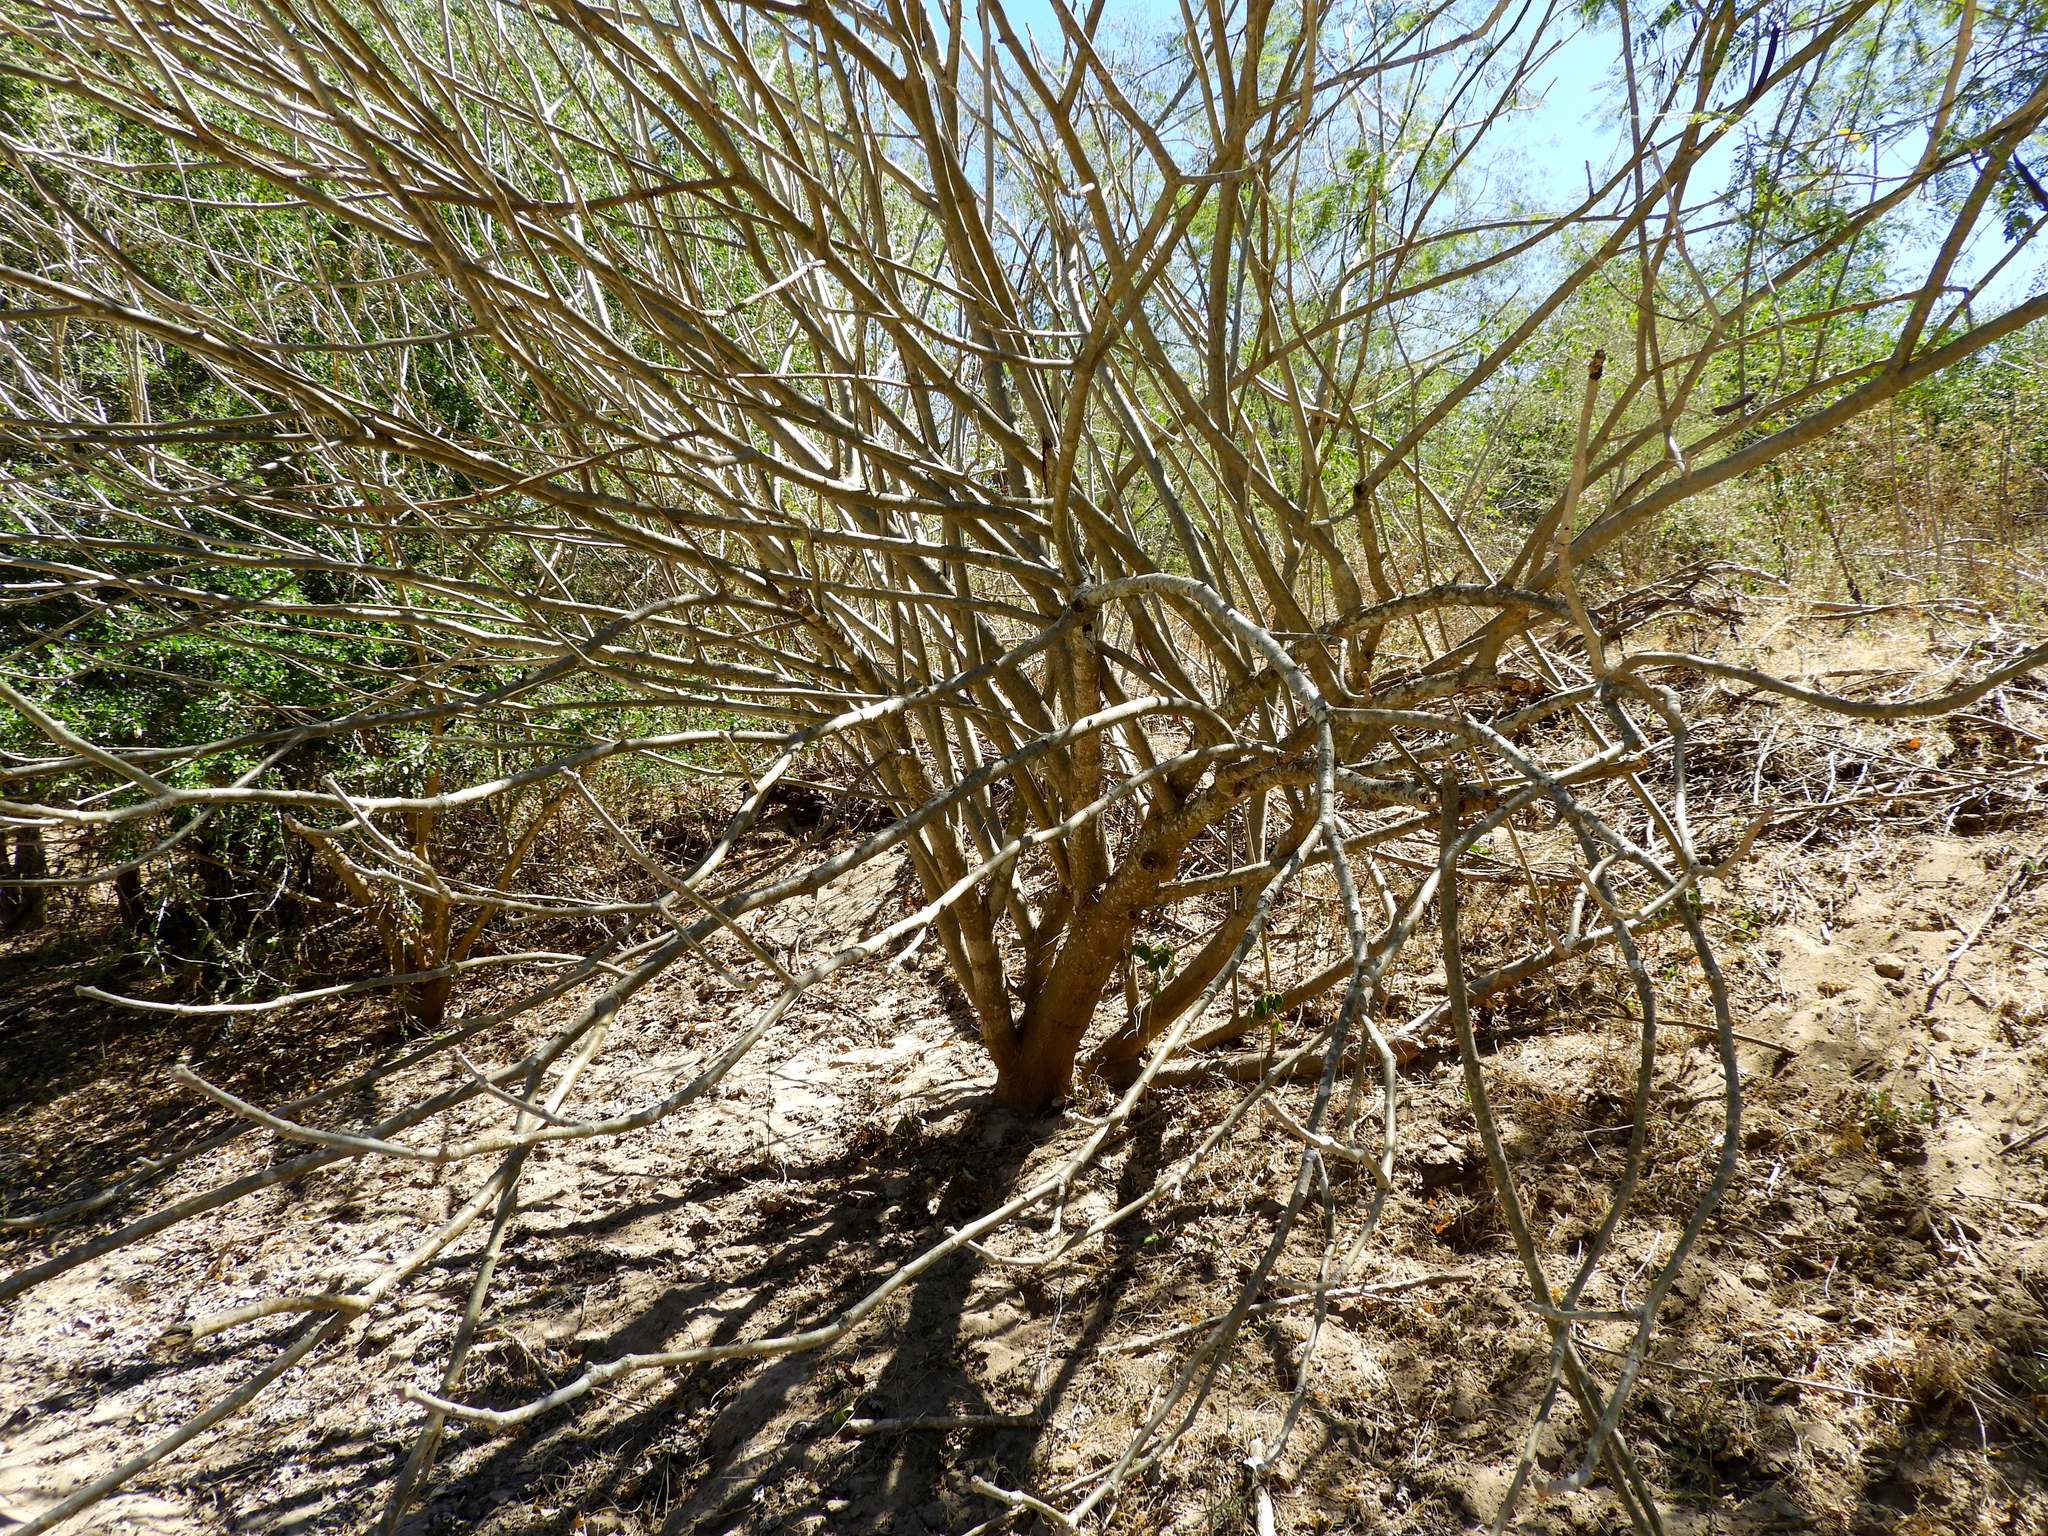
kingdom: Plantae
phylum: Tracheophyta
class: Magnoliopsida
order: Malpighiales
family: Euphorbiaceae
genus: Jatropha
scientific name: Jatropha curcas
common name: Barbados nut
